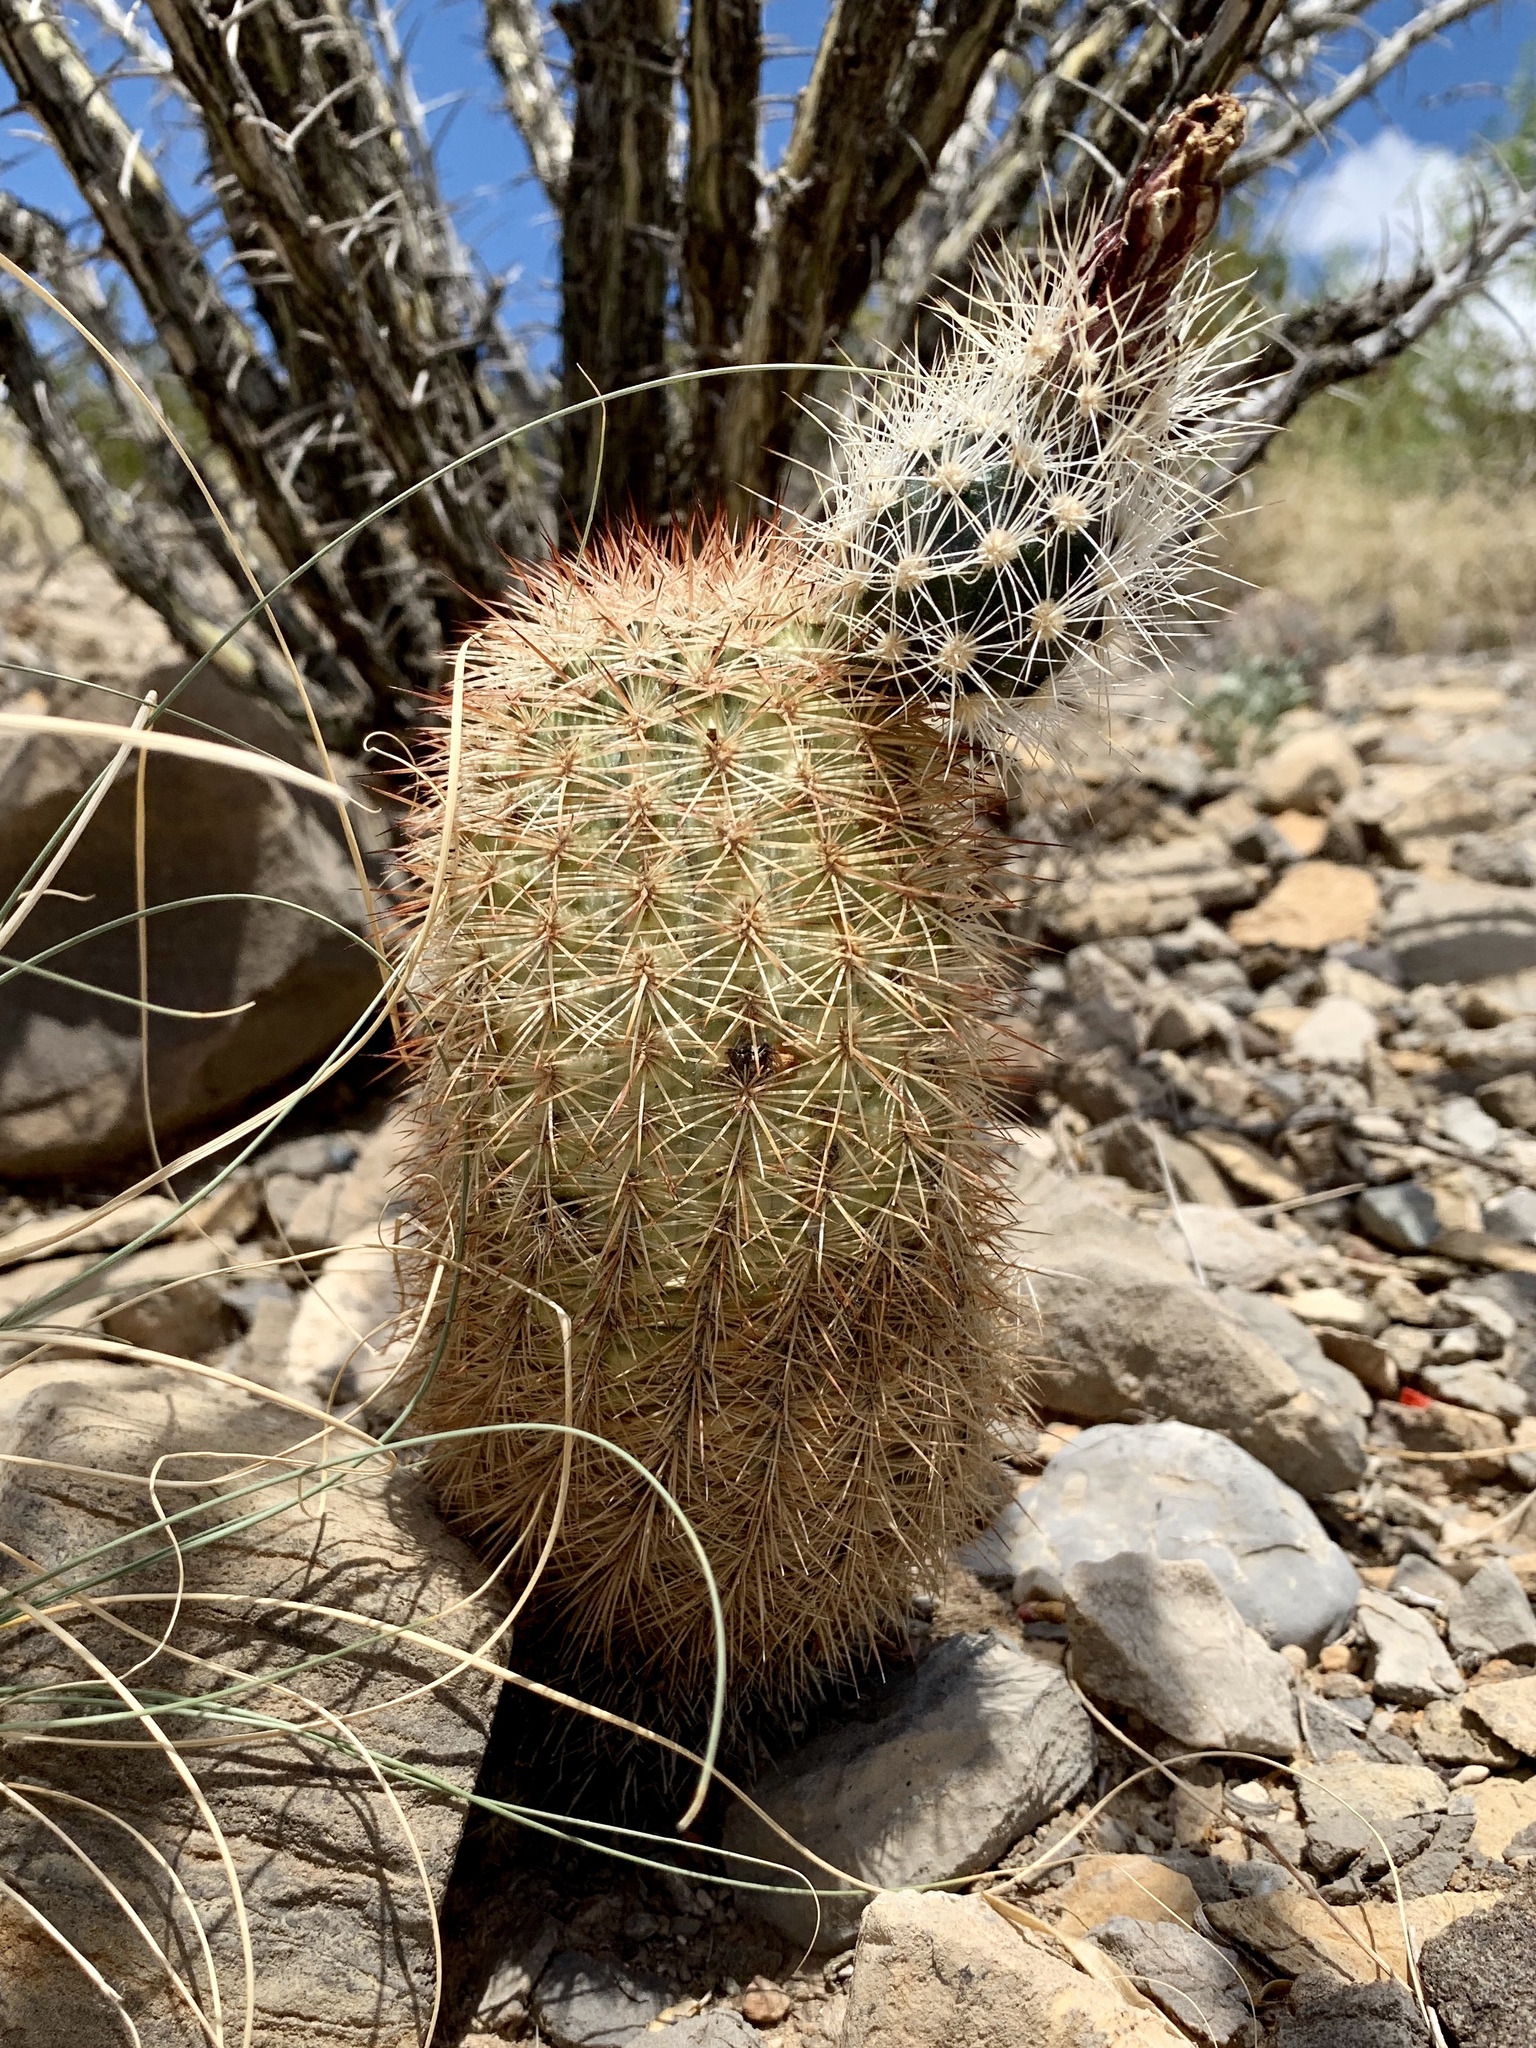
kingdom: Plantae
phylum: Tracheophyta
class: Magnoliopsida
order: Caryophyllales
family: Cactaceae
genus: Echinocereus
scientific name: Echinocereus dasyacanthus
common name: Spiny hedgehog cactus
